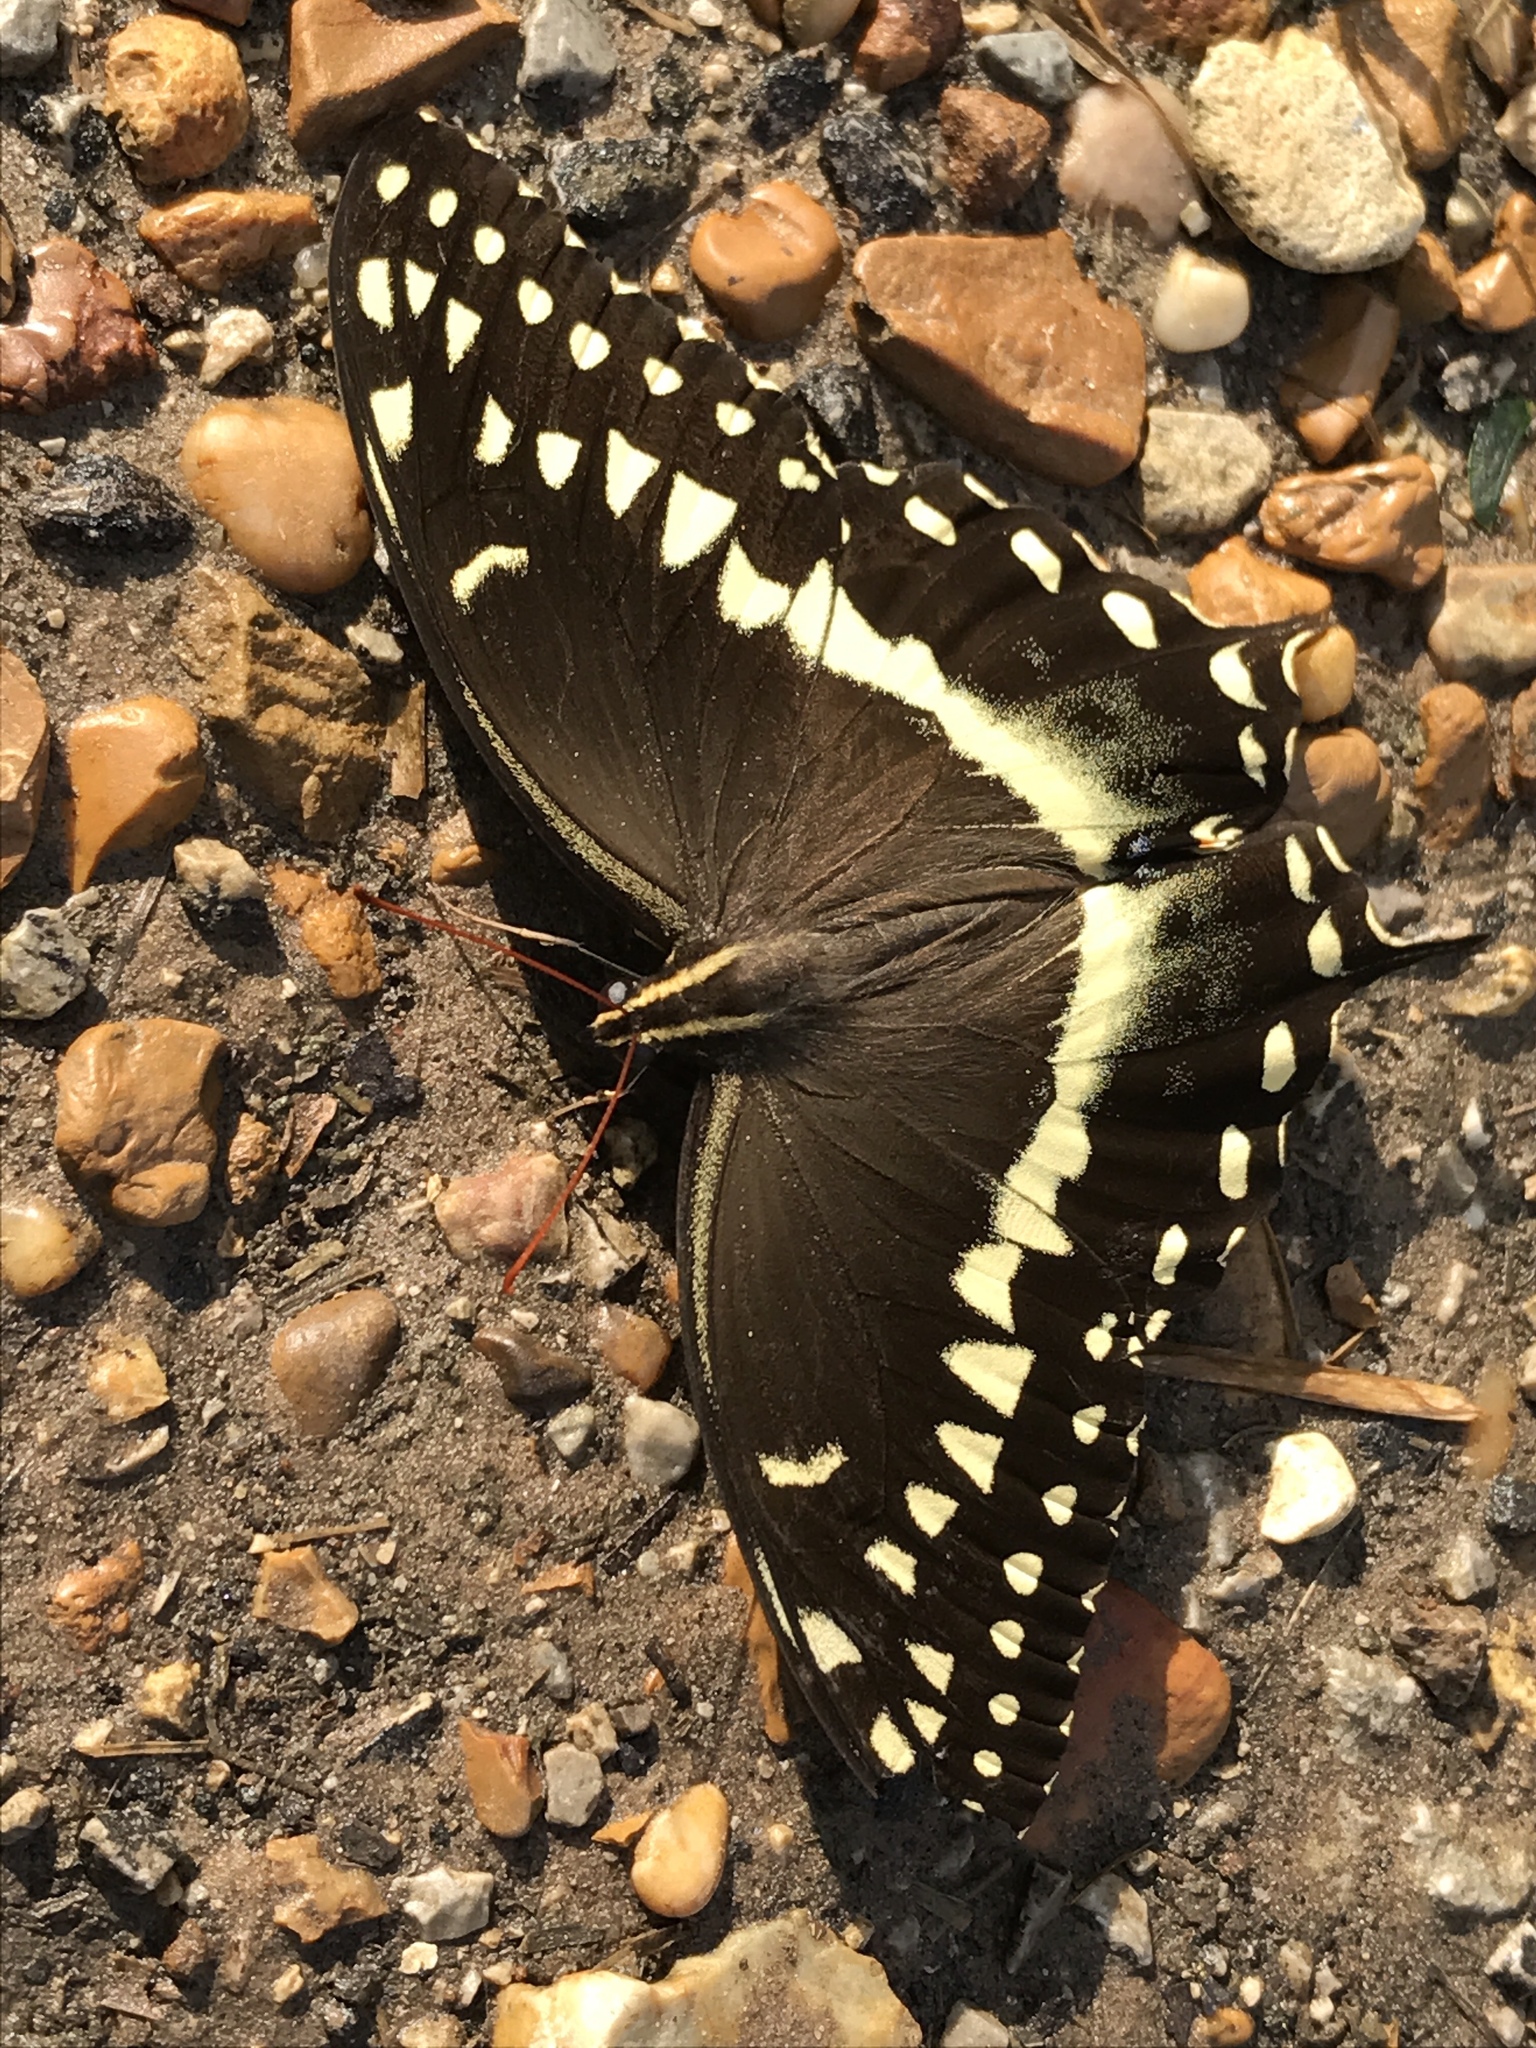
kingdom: Animalia
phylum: Arthropoda
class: Insecta
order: Lepidoptera
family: Papilionidae
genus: Papilio
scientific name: Papilio palamedes
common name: Palamedes swallowtail
